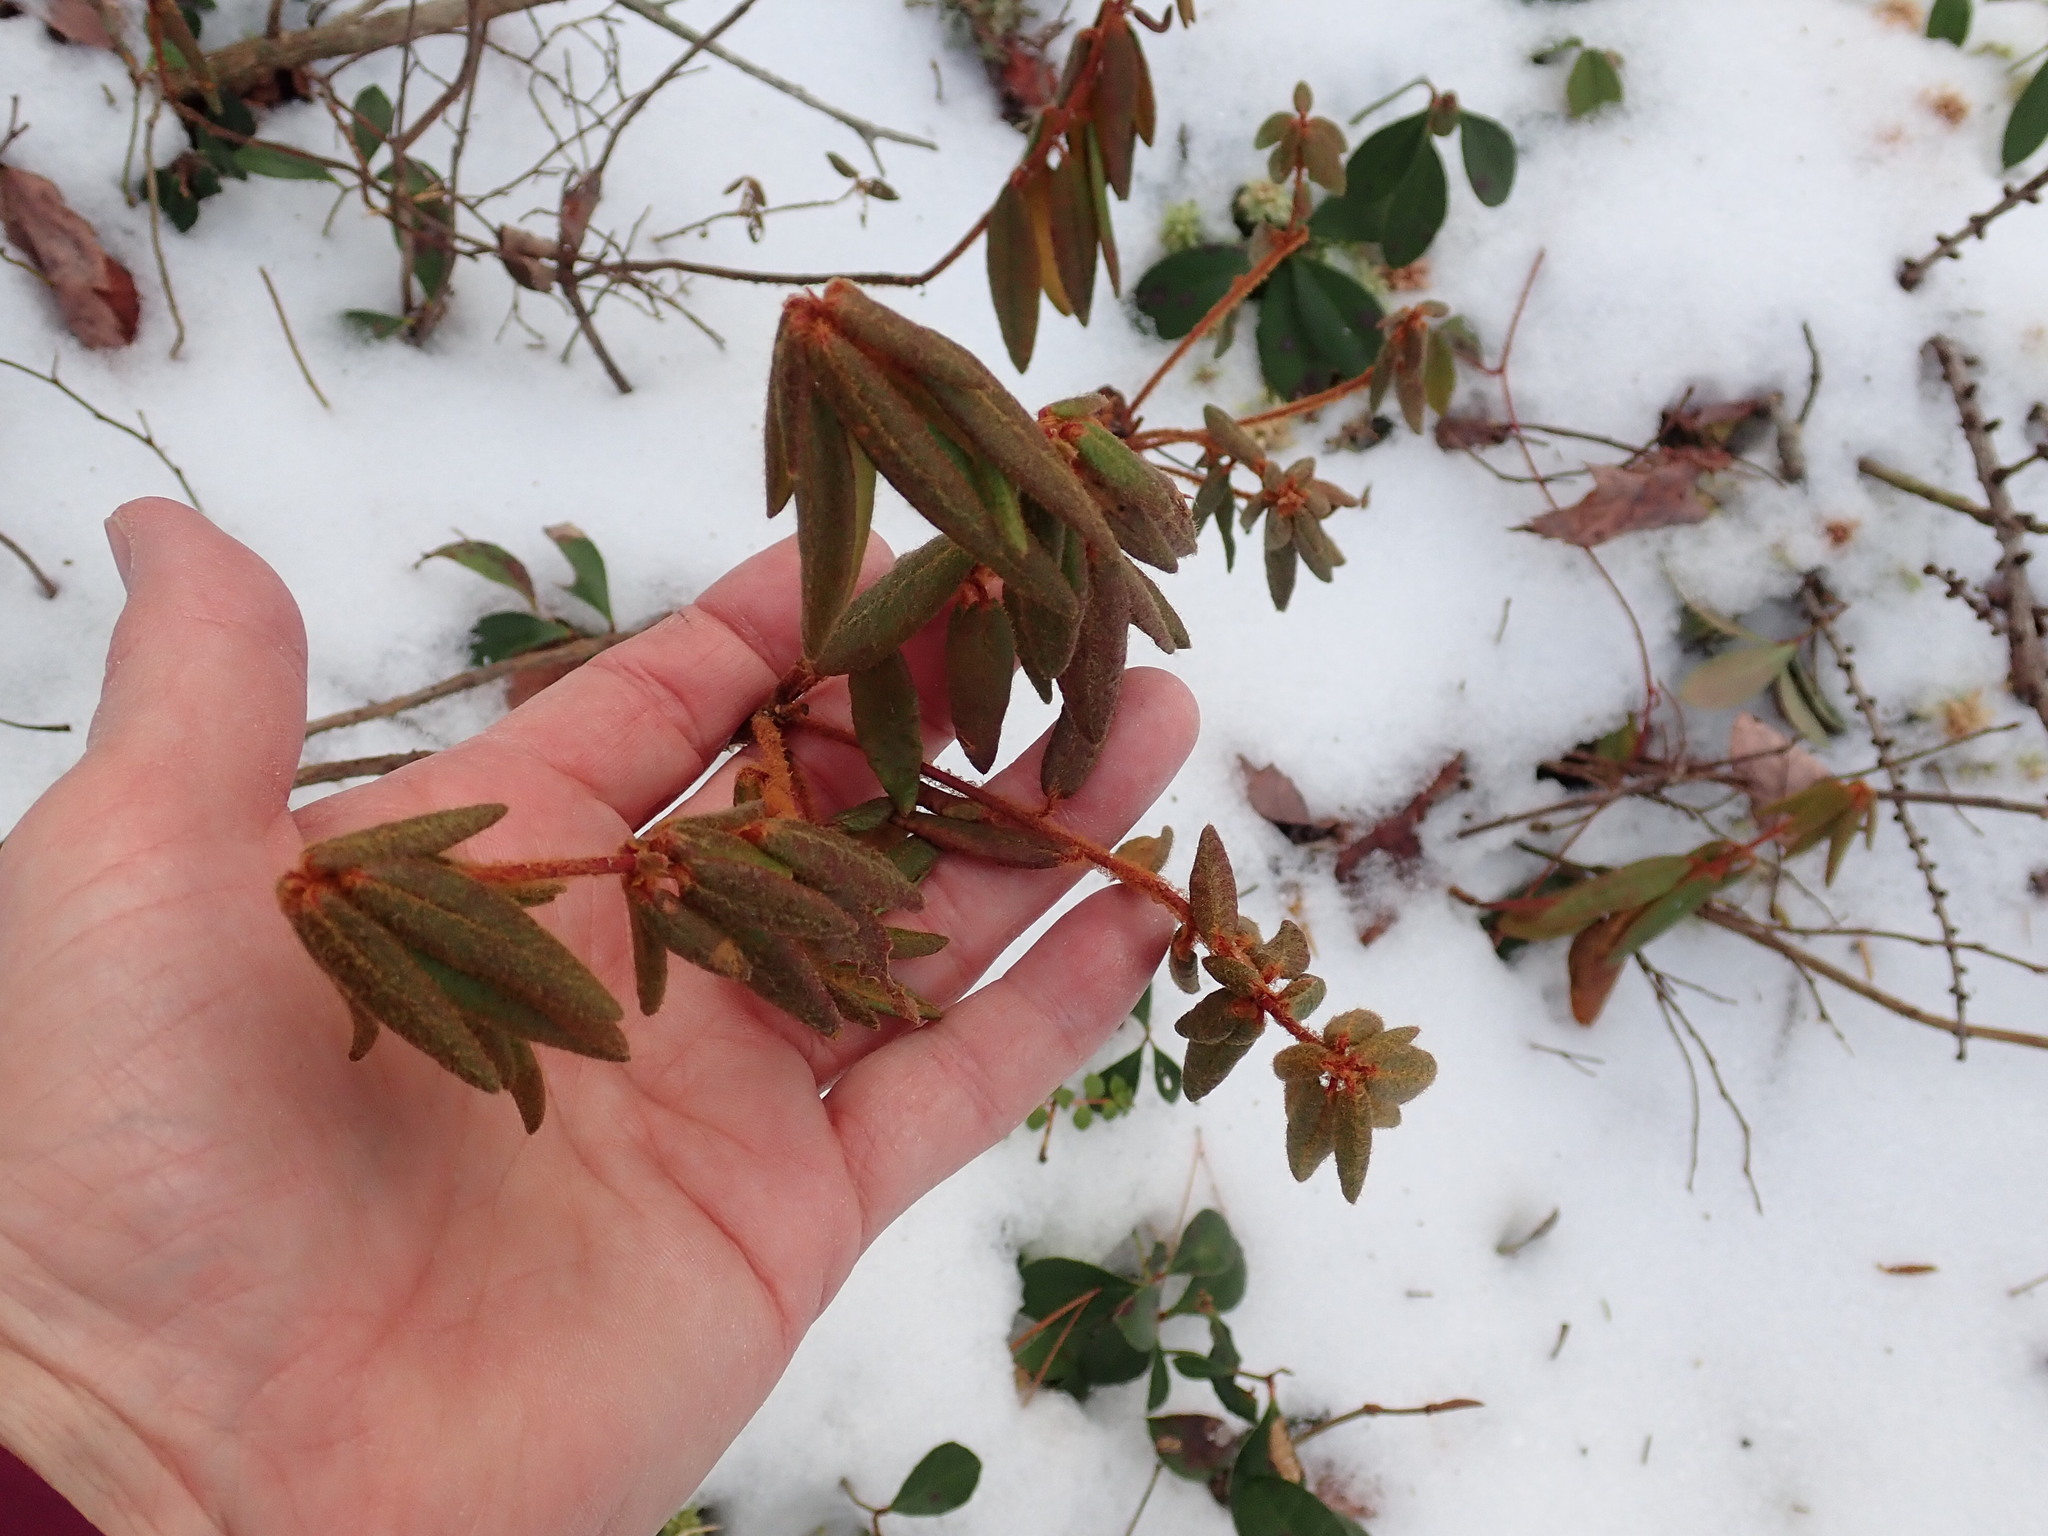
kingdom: Plantae
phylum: Tracheophyta
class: Magnoliopsida
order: Ericales
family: Ericaceae
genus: Rhododendron
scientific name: Rhododendron groenlandicum
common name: Bog labrador tea
